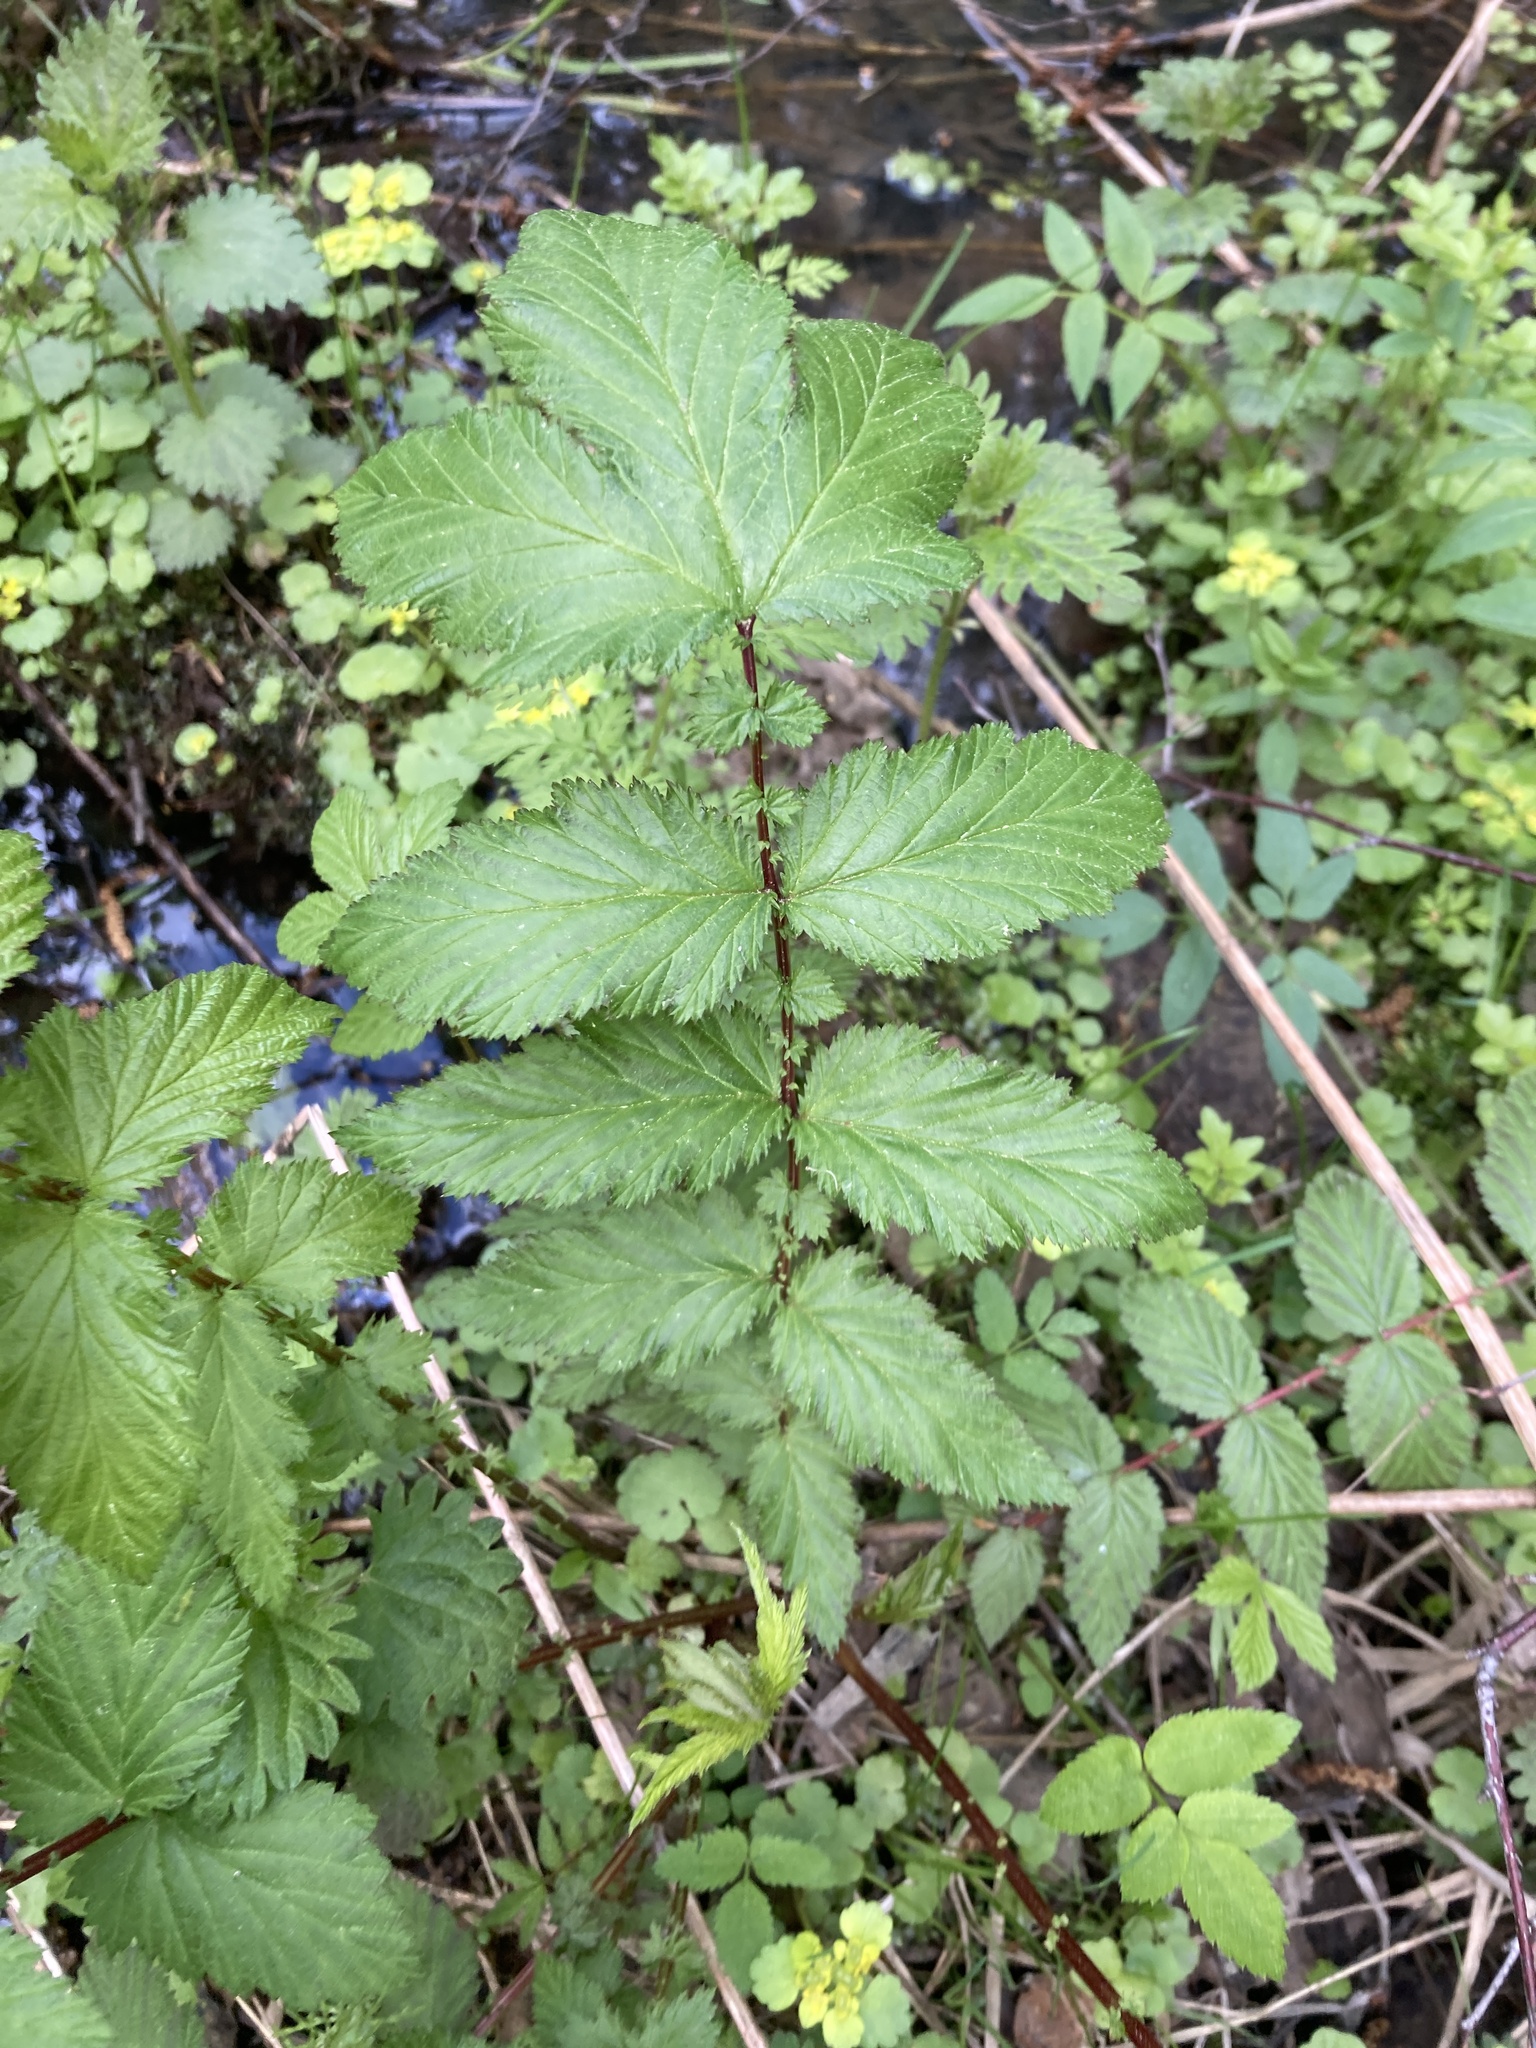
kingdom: Plantae
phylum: Tracheophyta
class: Magnoliopsida
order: Rosales
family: Rosaceae
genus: Filipendula
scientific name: Filipendula ulmaria
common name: Meadowsweet
